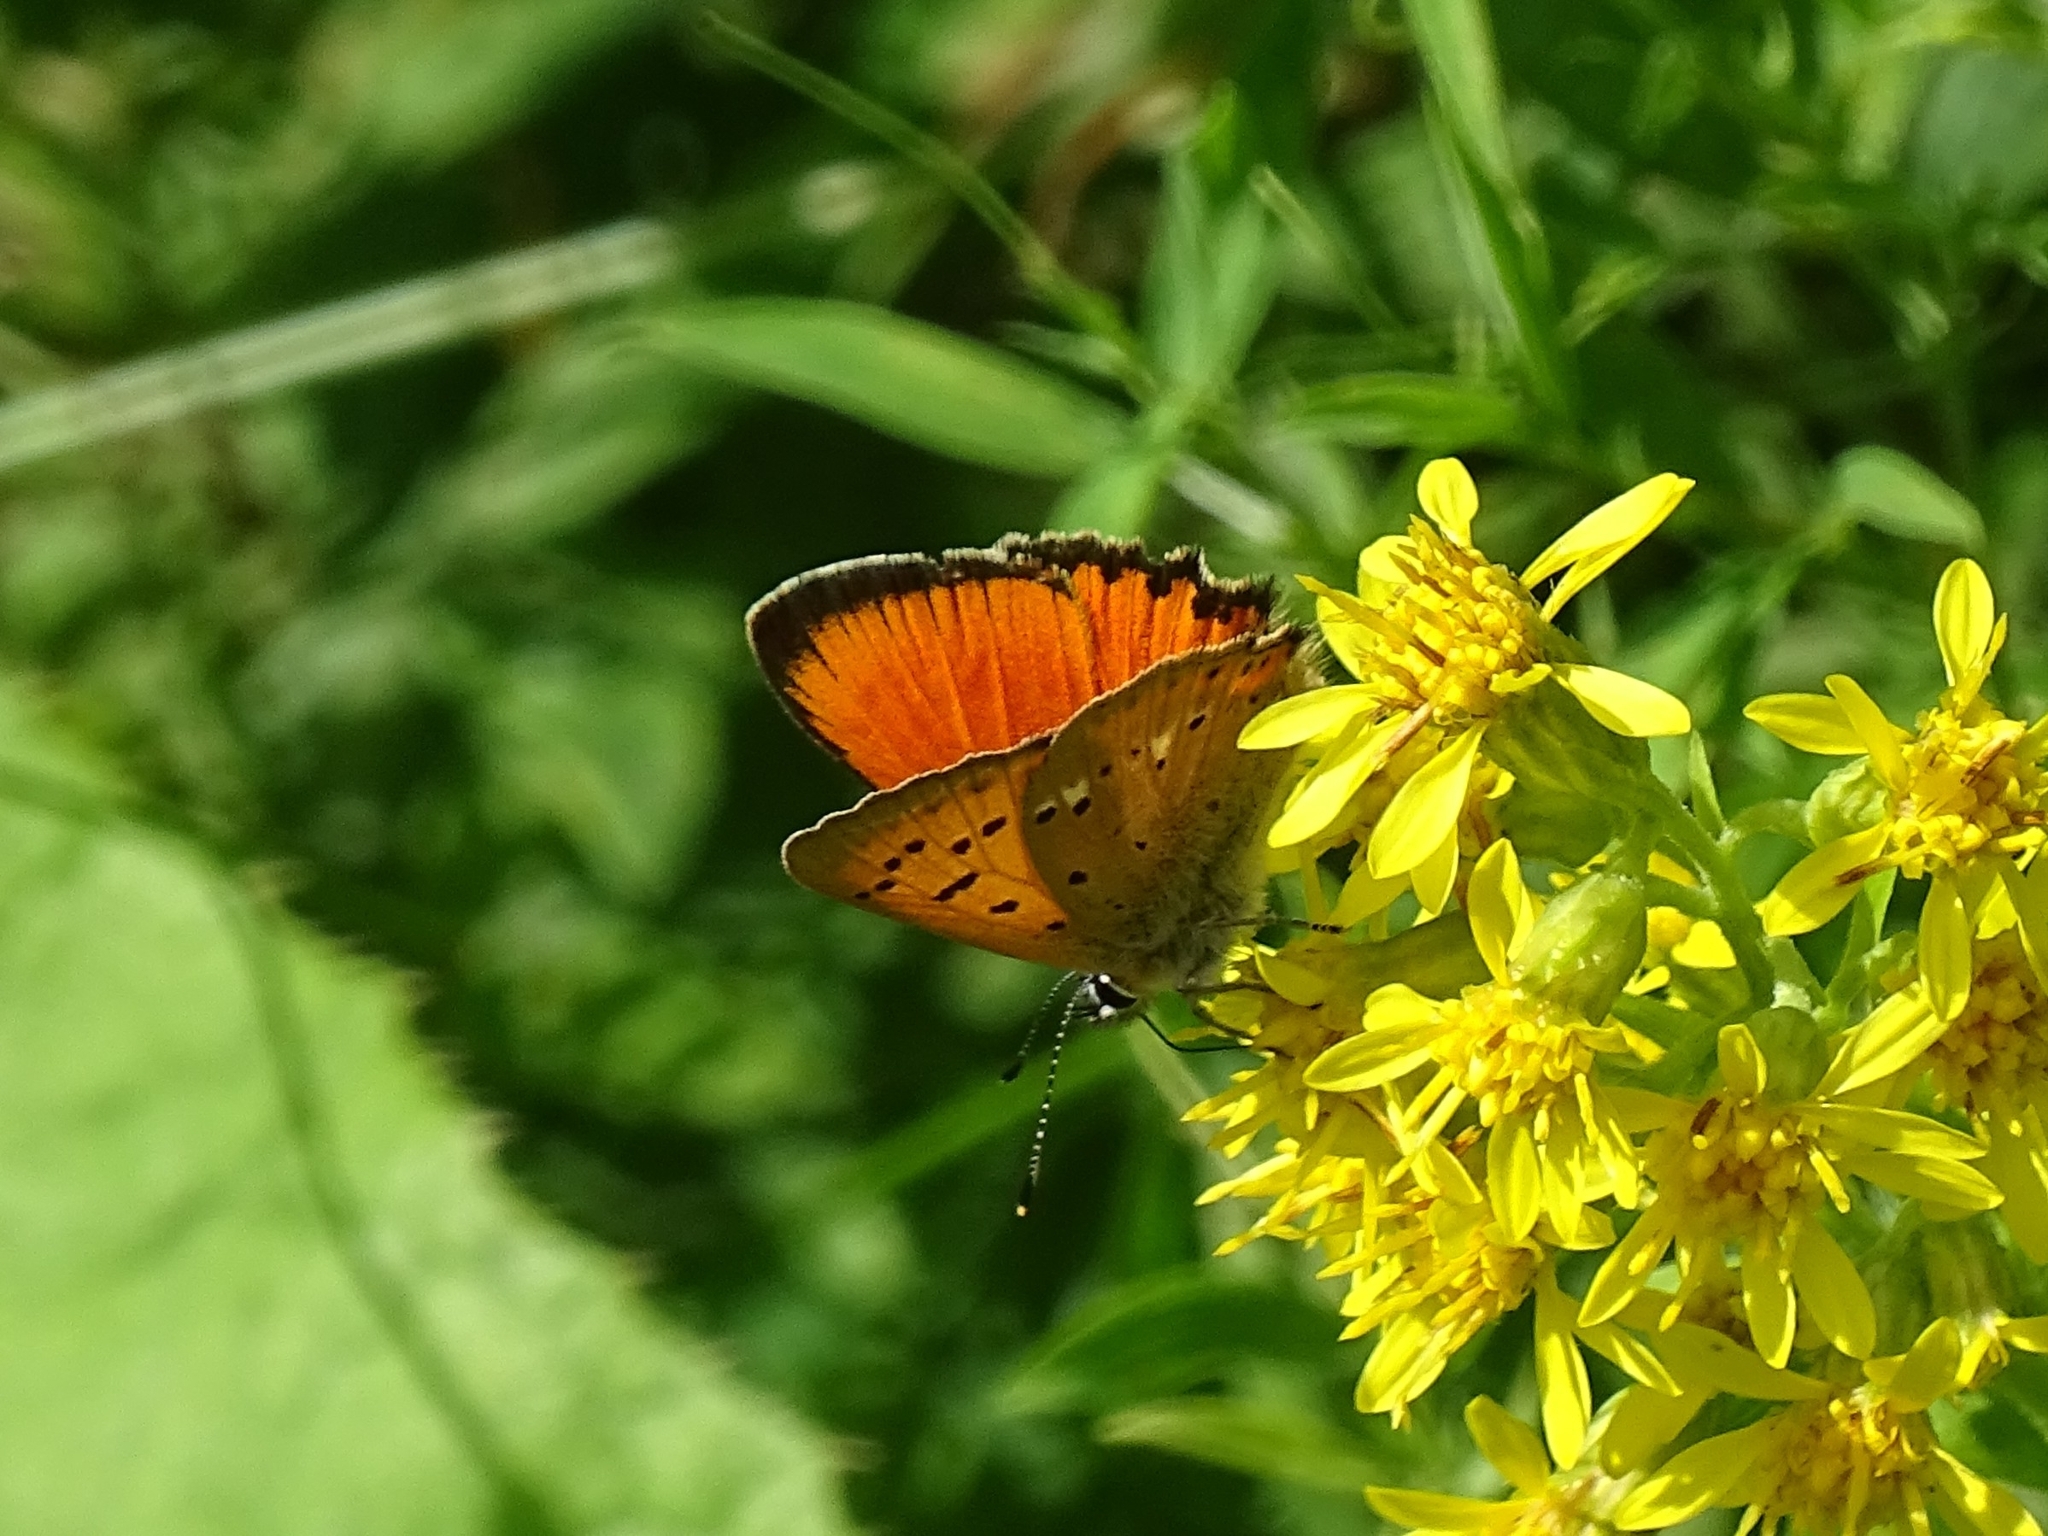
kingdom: Animalia
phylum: Arthropoda
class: Insecta
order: Lepidoptera
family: Lycaenidae
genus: Lycaena
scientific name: Lycaena virgaureae
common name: Scarce copper
